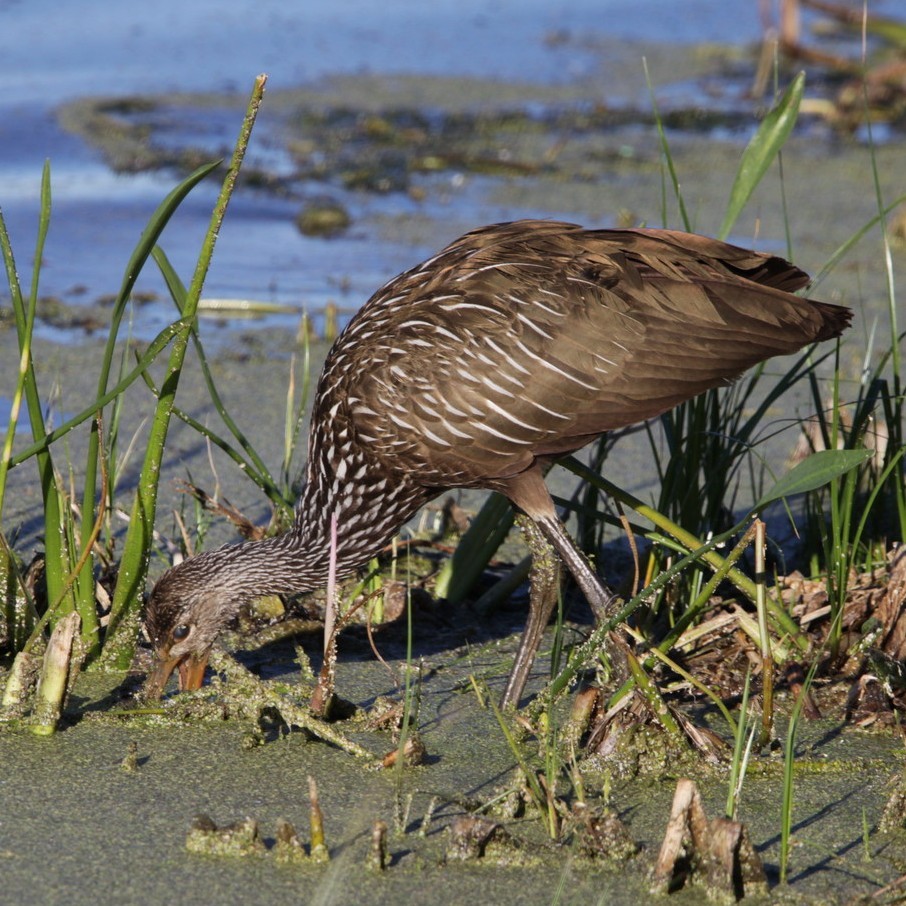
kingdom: Animalia
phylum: Chordata
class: Aves
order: Gruiformes
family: Aramidae
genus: Aramus
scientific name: Aramus guarauna
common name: Limpkin
